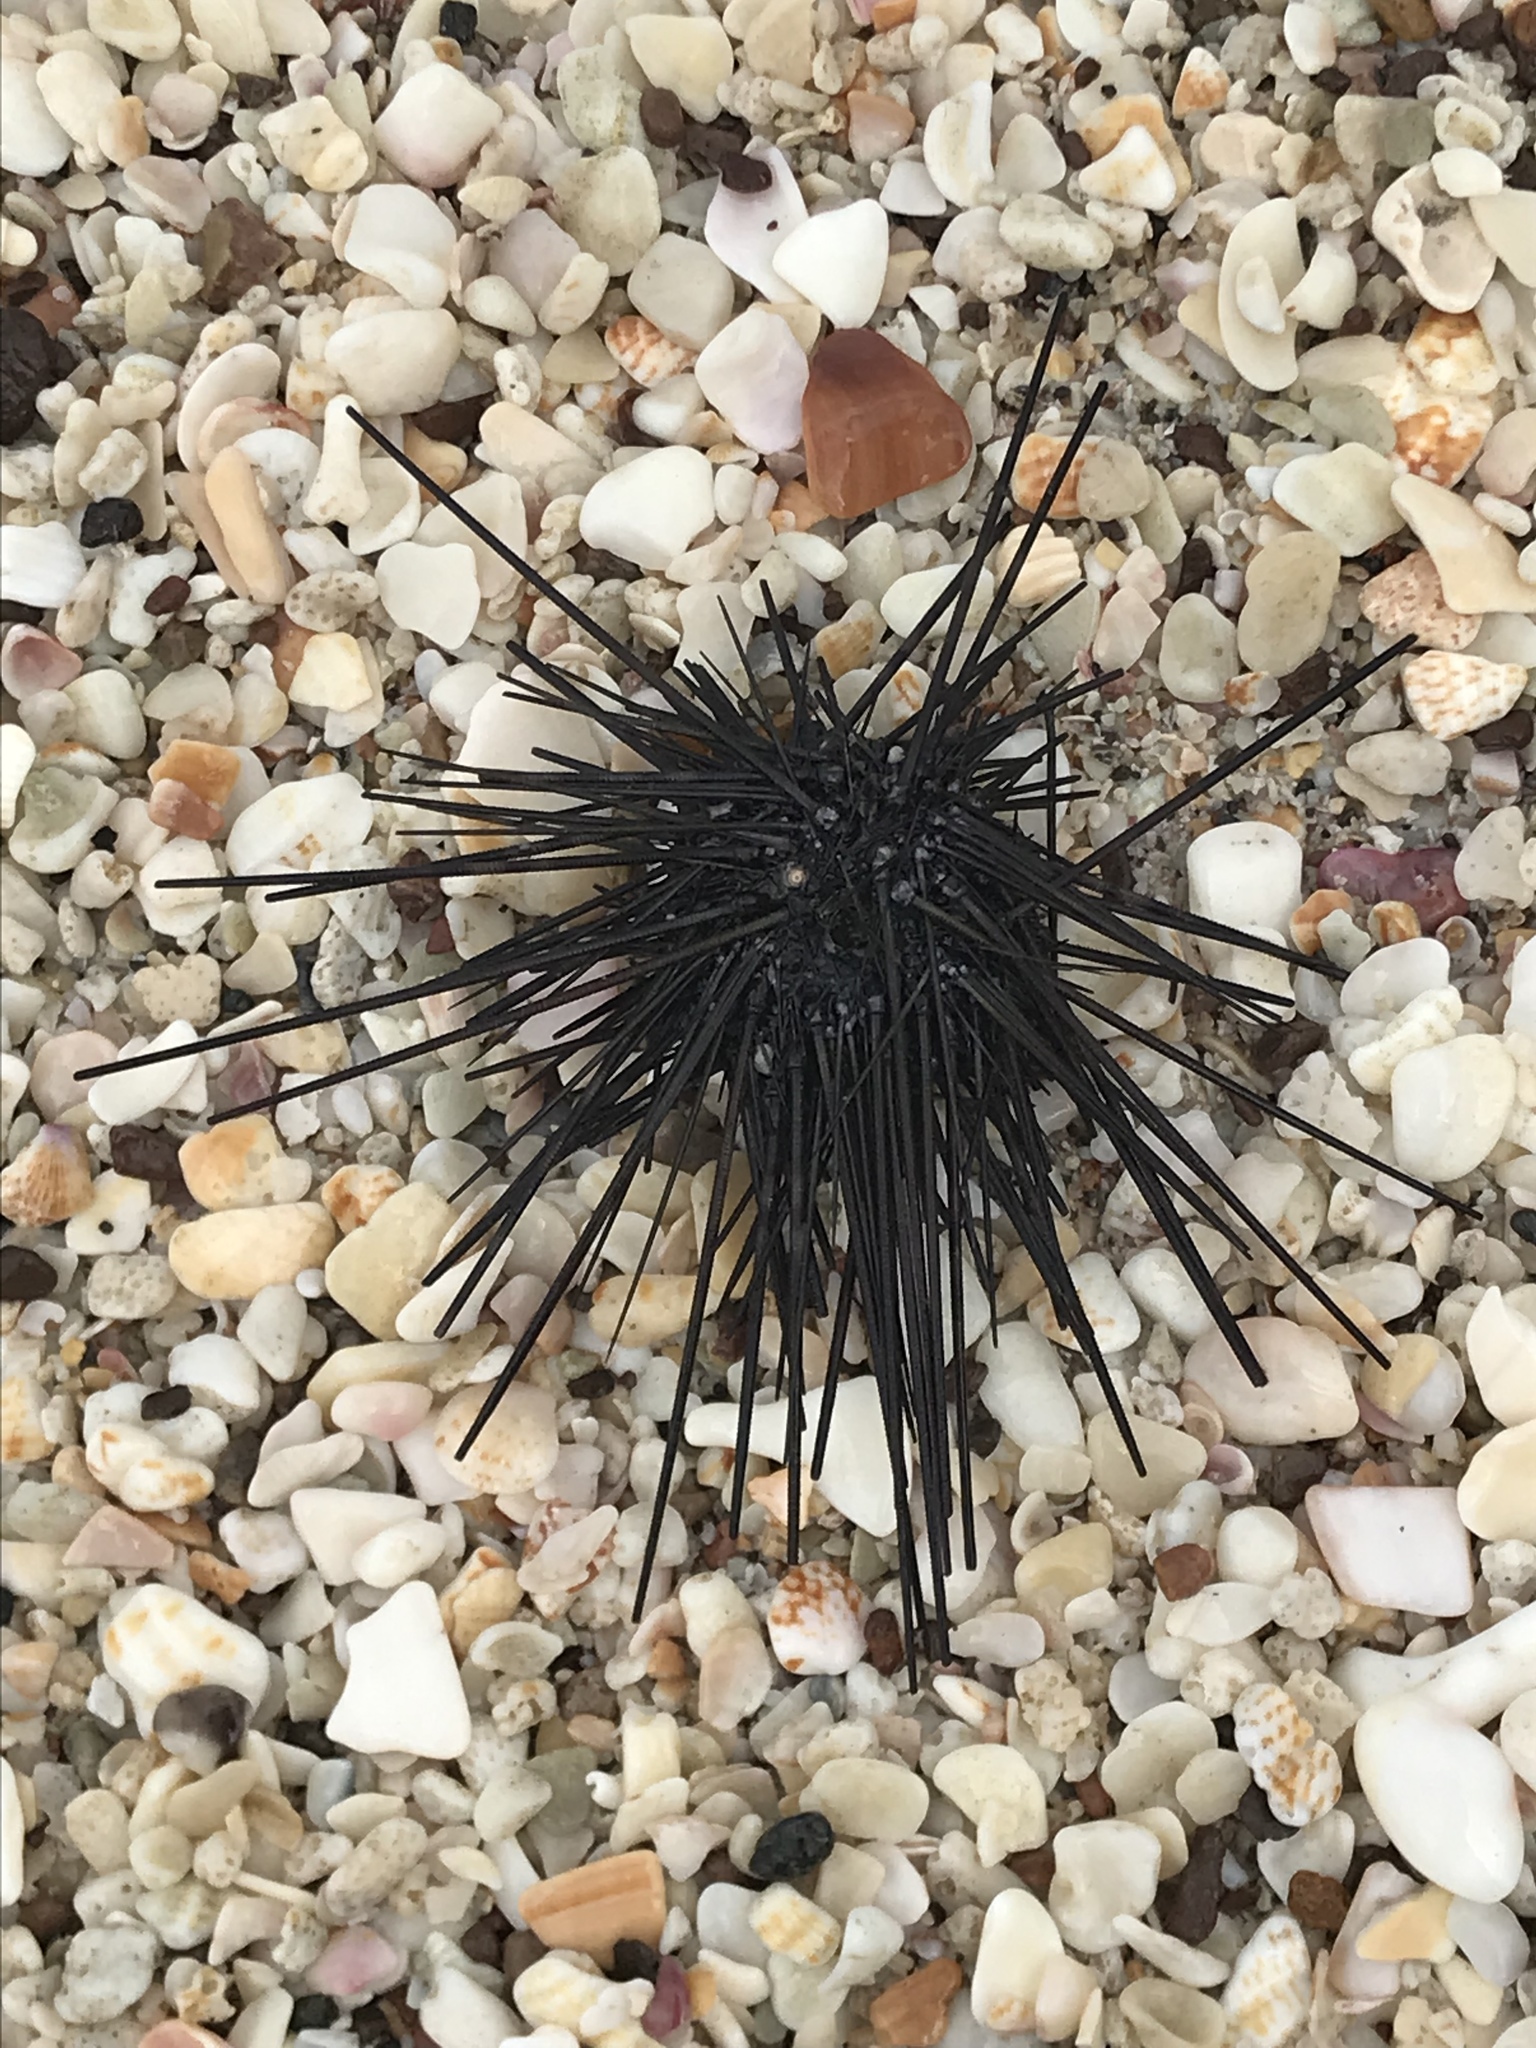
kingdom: Animalia
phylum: Echinodermata
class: Echinoidea
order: Diadematoida
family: Diadematidae
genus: Diadema
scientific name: Diadema mexicanum
